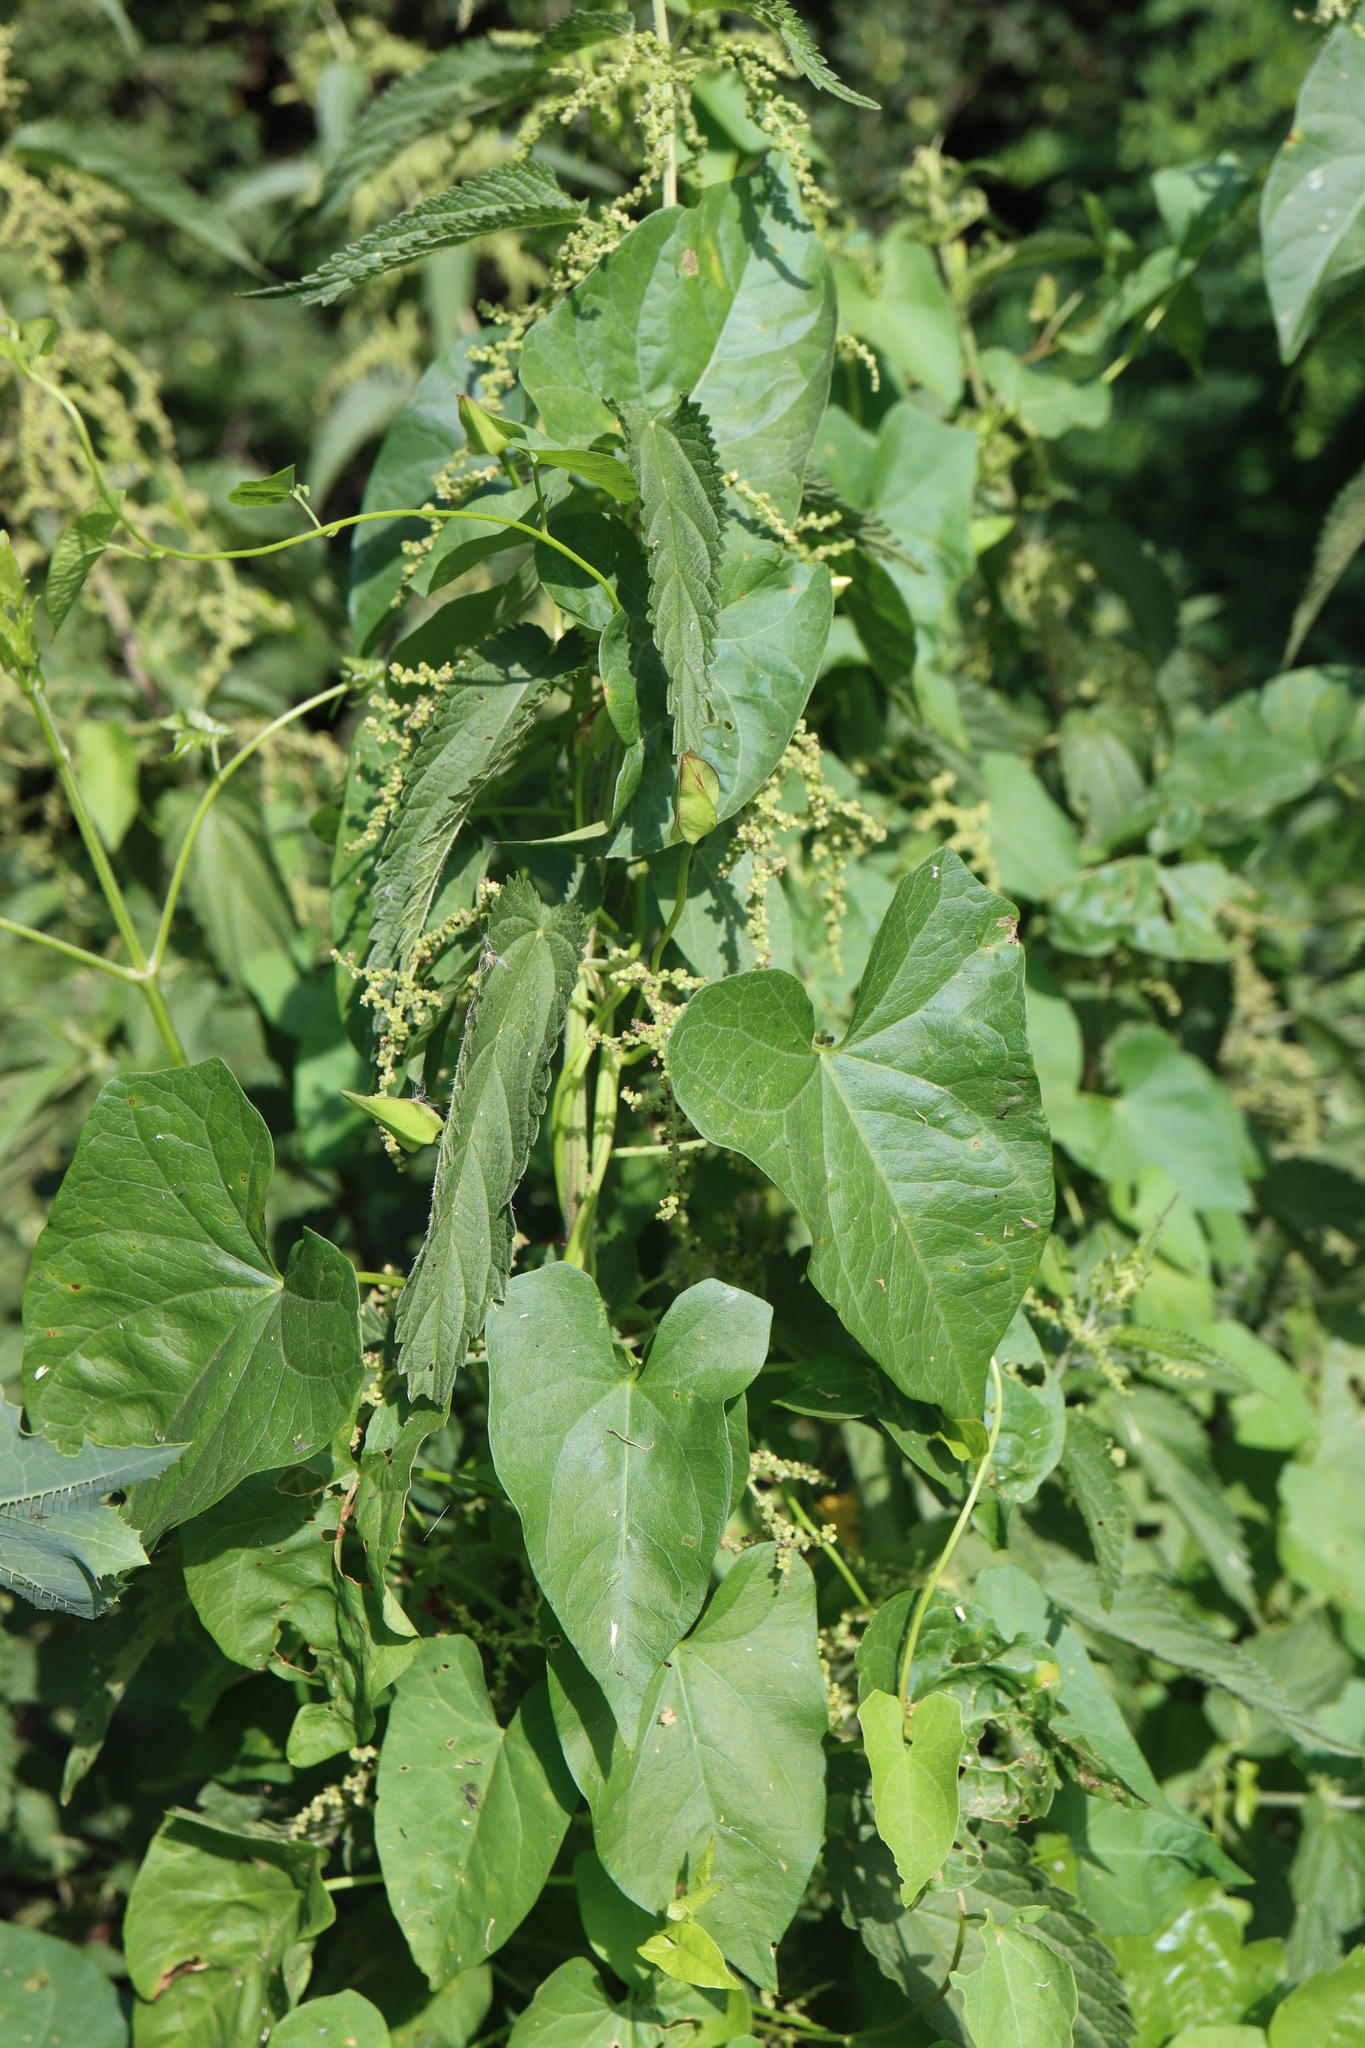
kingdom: Plantae
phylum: Tracheophyta
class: Magnoliopsida
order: Solanales
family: Convolvulaceae
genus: Calystegia
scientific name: Calystegia sepium
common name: Hedge bindweed
